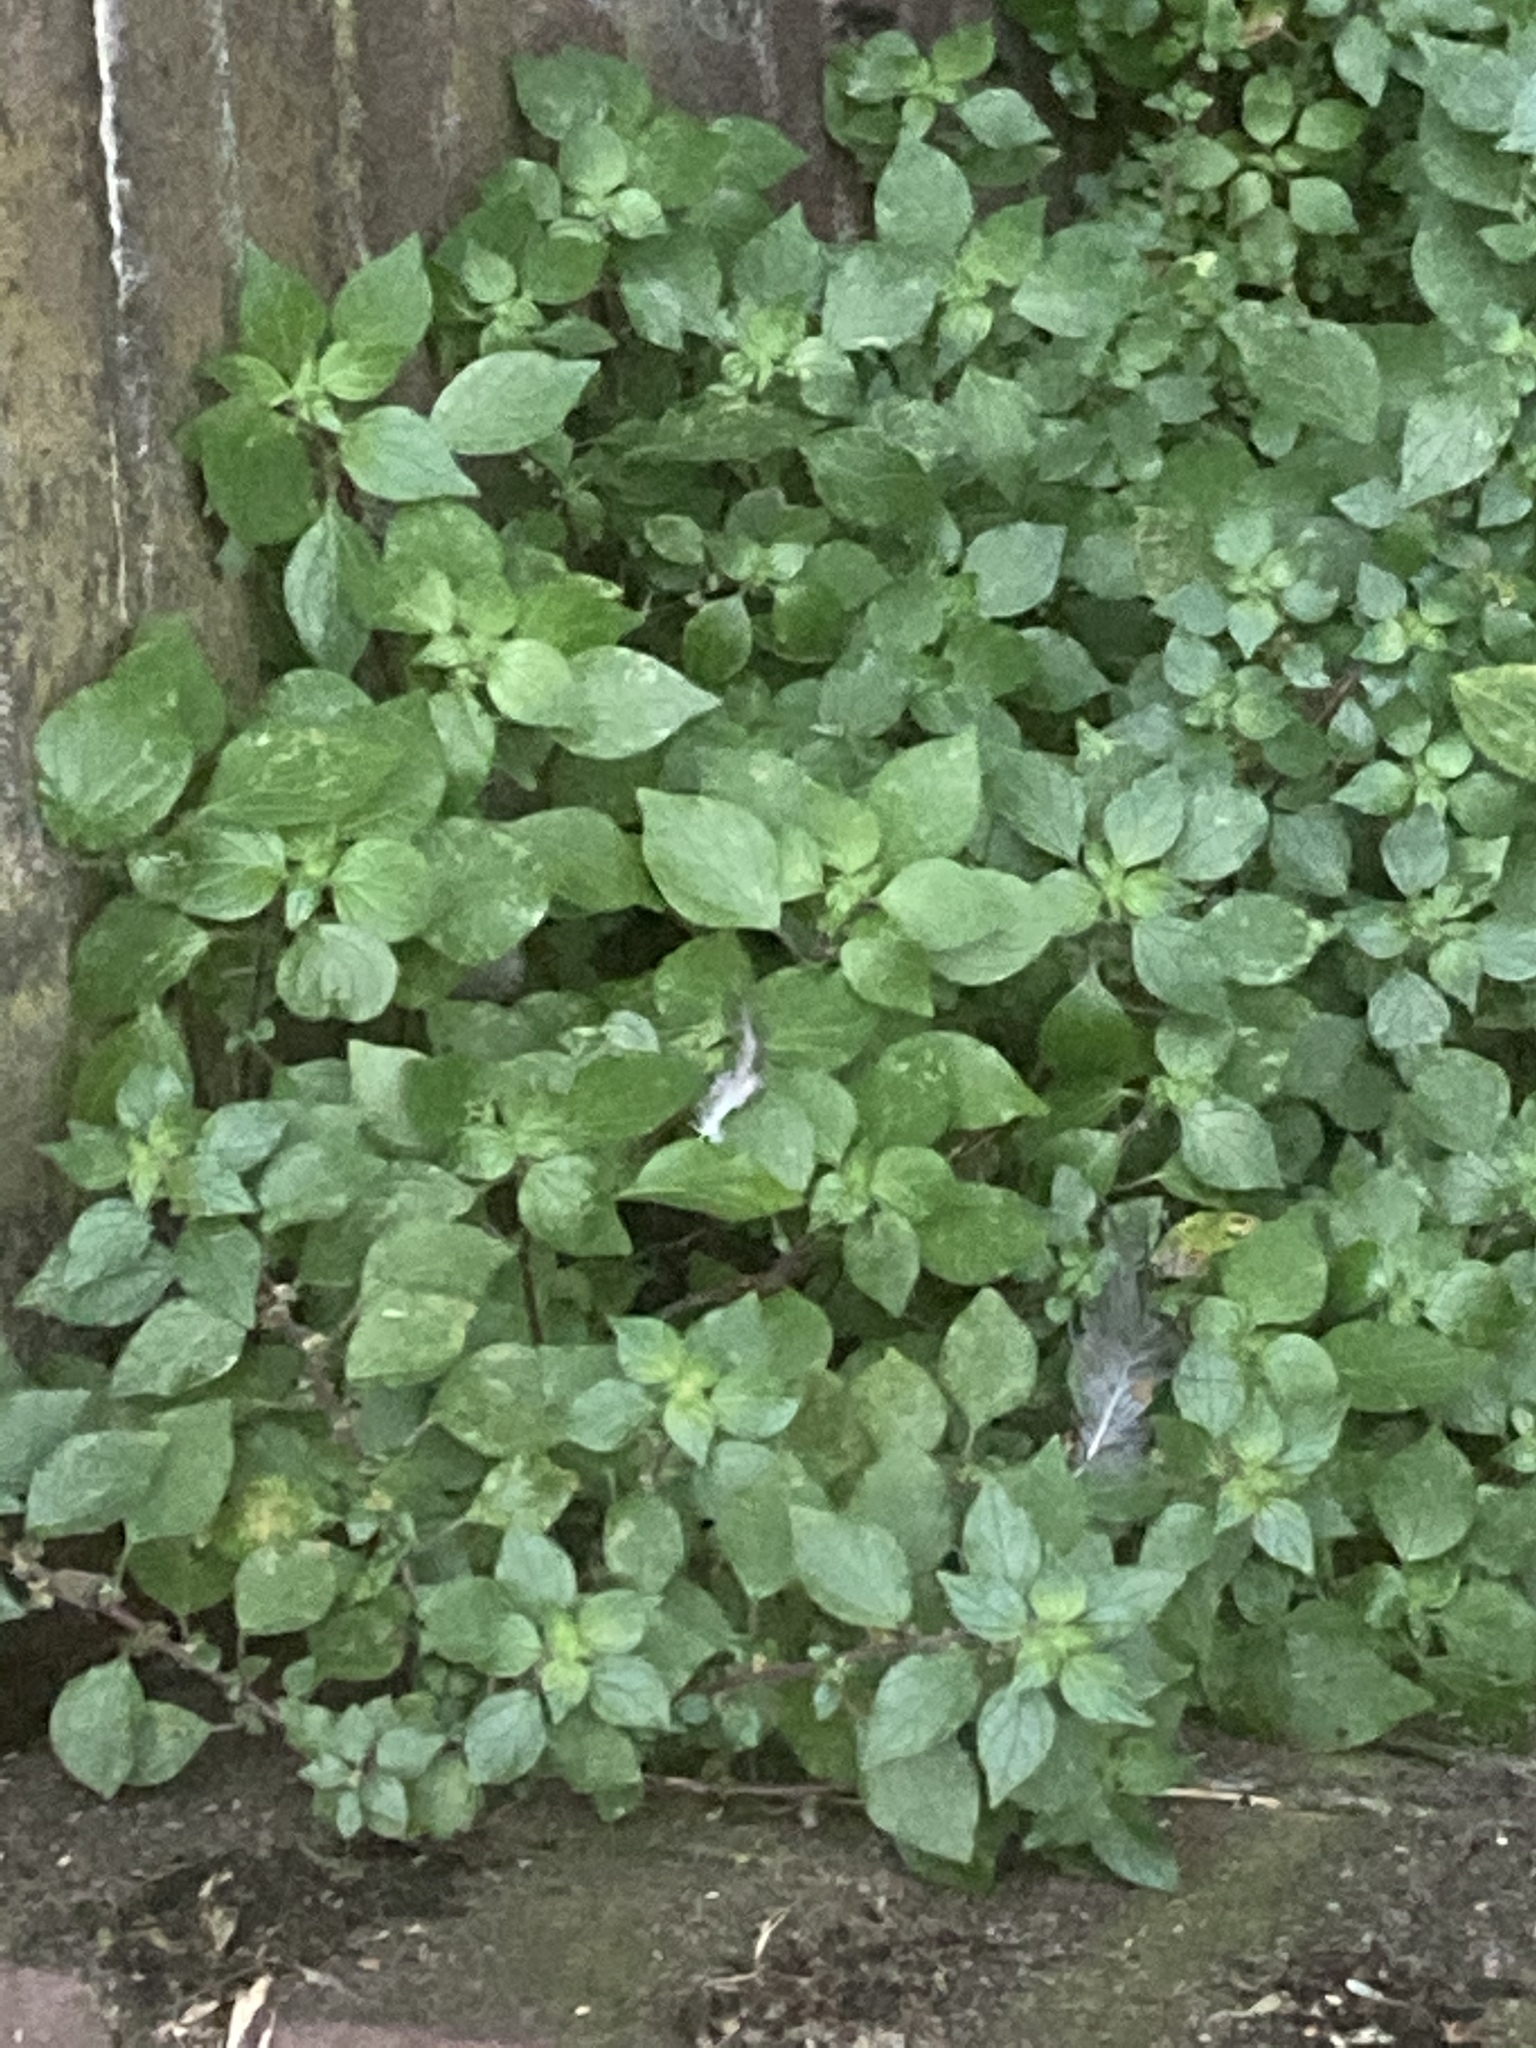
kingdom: Plantae
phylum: Tracheophyta
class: Magnoliopsida
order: Rosales
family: Urticaceae
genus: Parietaria
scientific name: Parietaria judaica
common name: Pellitory-of-the-wall
